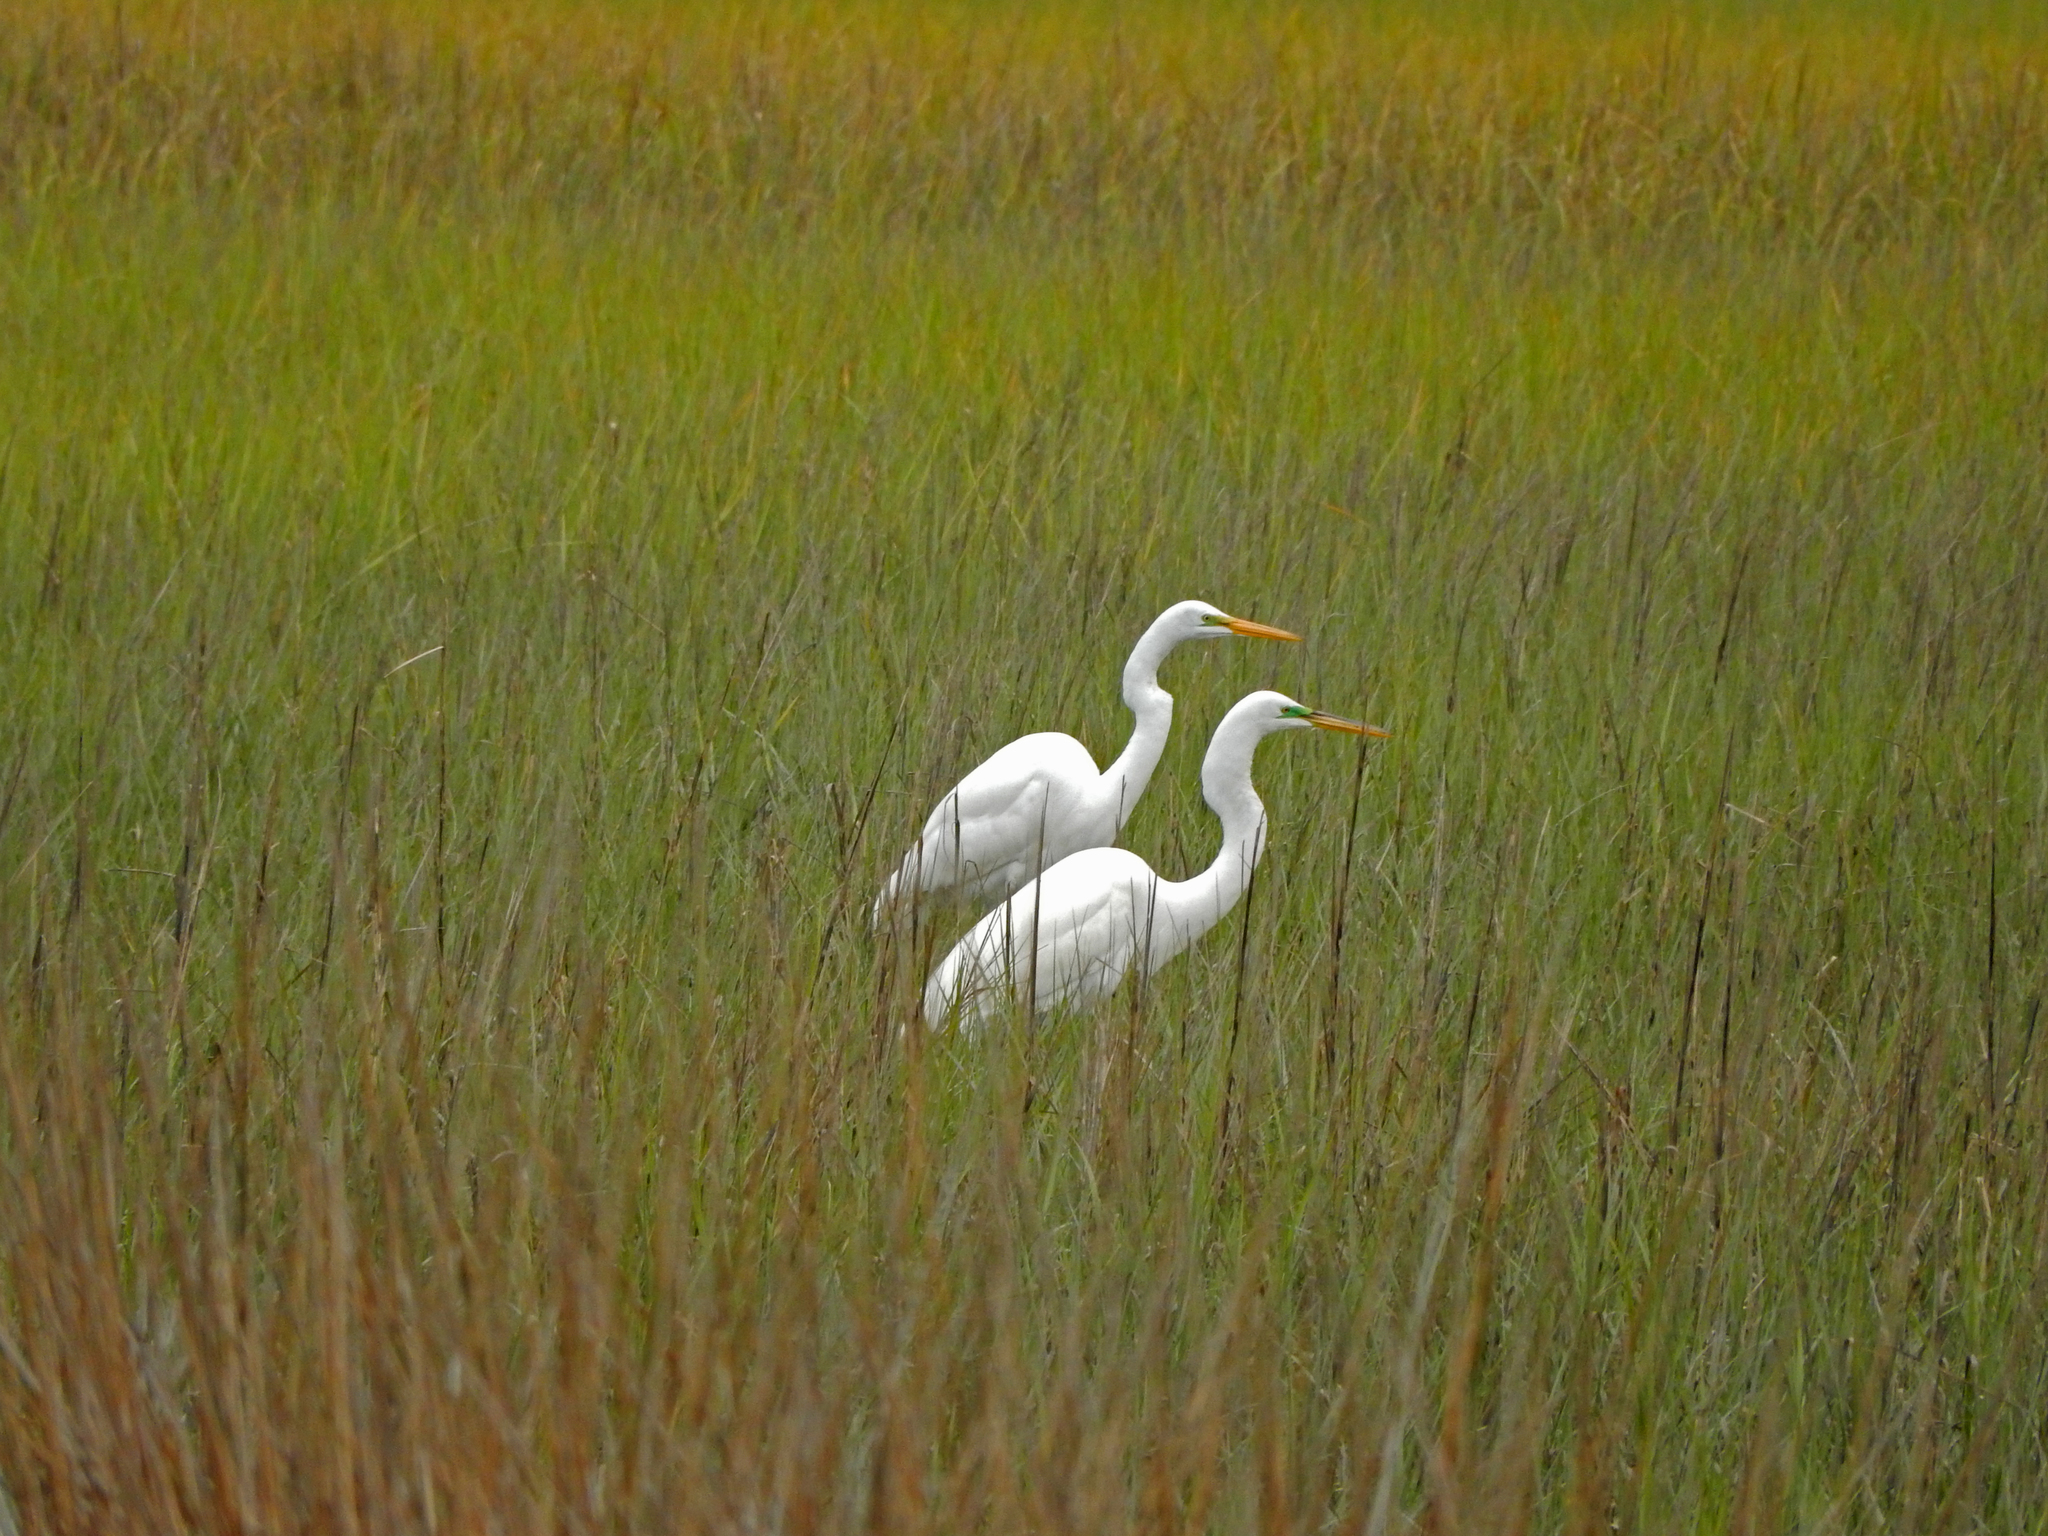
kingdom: Animalia
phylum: Chordata
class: Aves
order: Pelecaniformes
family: Ardeidae
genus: Ardea
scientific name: Ardea alba
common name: Great egret
